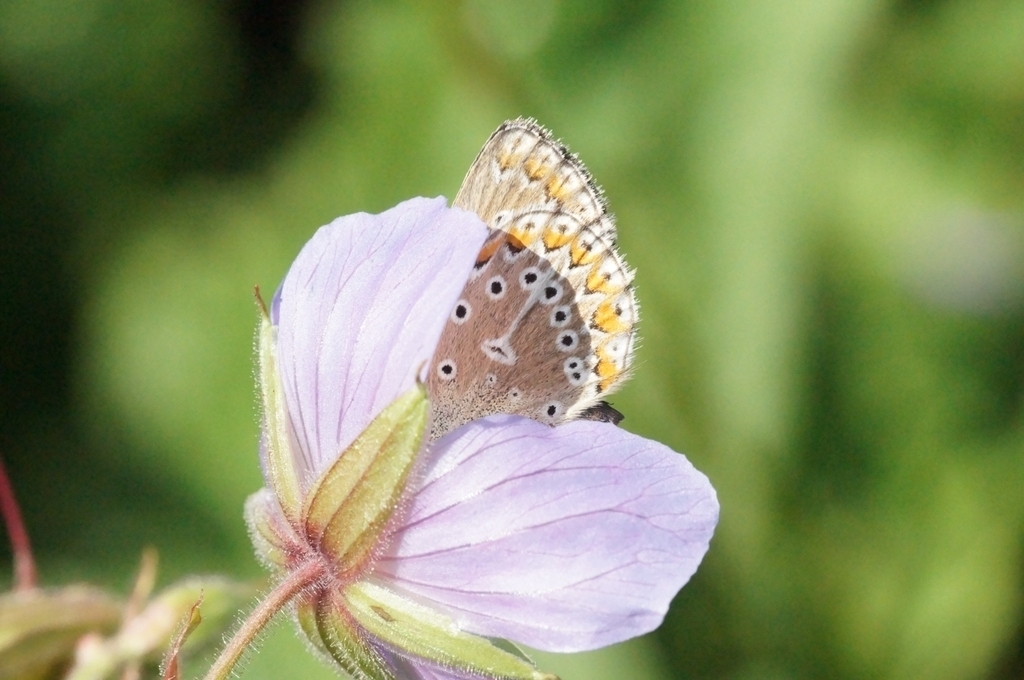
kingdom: Animalia
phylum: Arthropoda
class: Insecta
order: Lepidoptera
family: Lycaenidae
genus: Eumedonia
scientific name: Eumedonia eumedon
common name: Geranium argus
